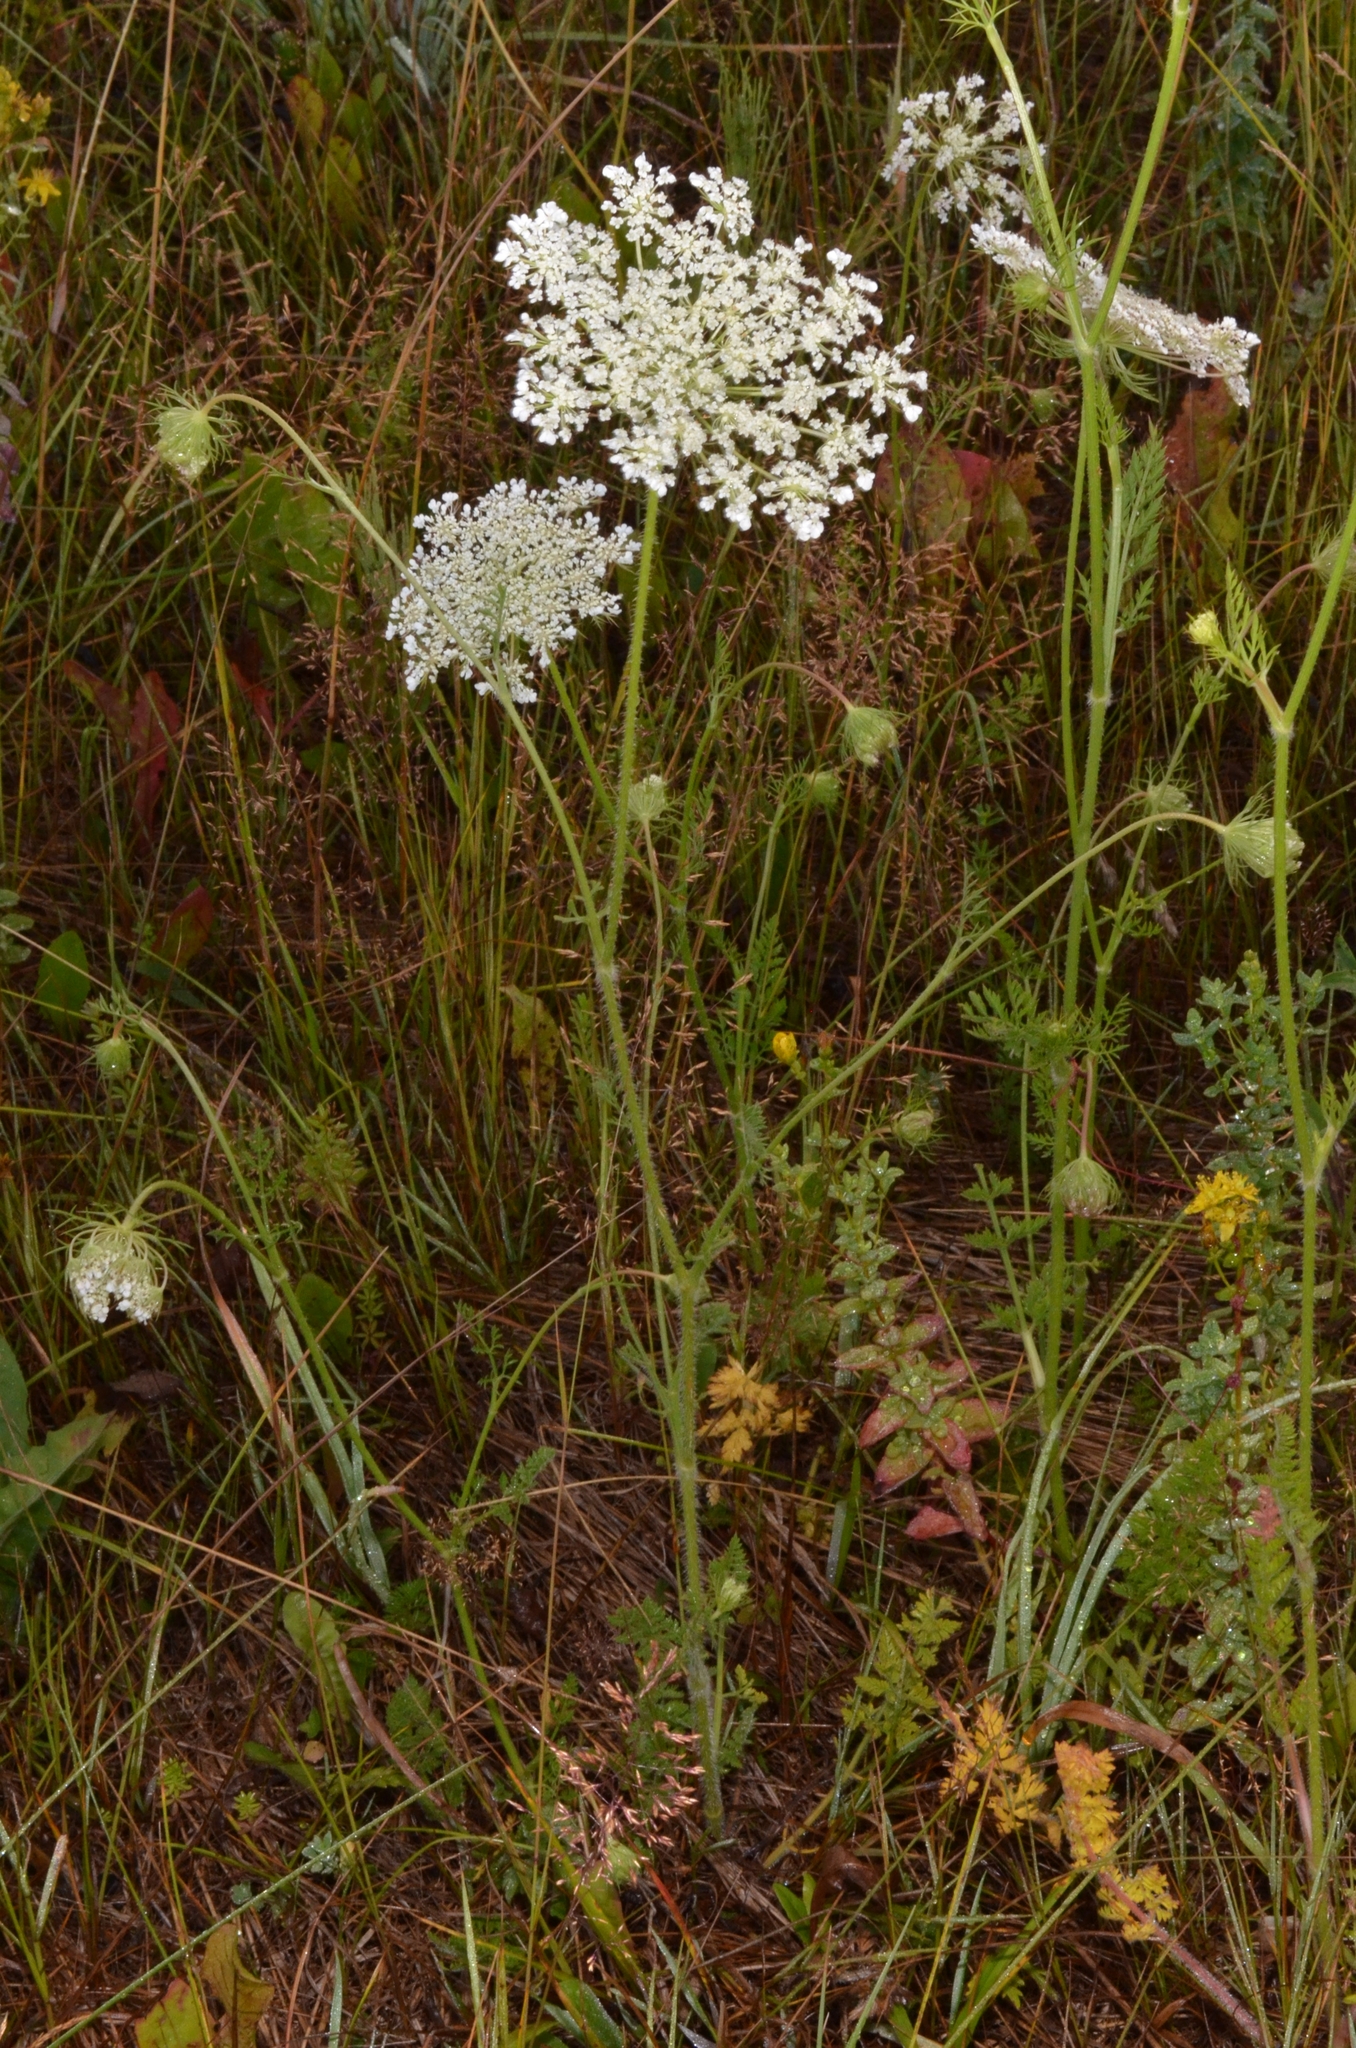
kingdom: Plantae
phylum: Tracheophyta
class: Magnoliopsida
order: Apiales
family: Apiaceae
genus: Daucus
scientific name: Daucus carota
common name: Wild carrot
